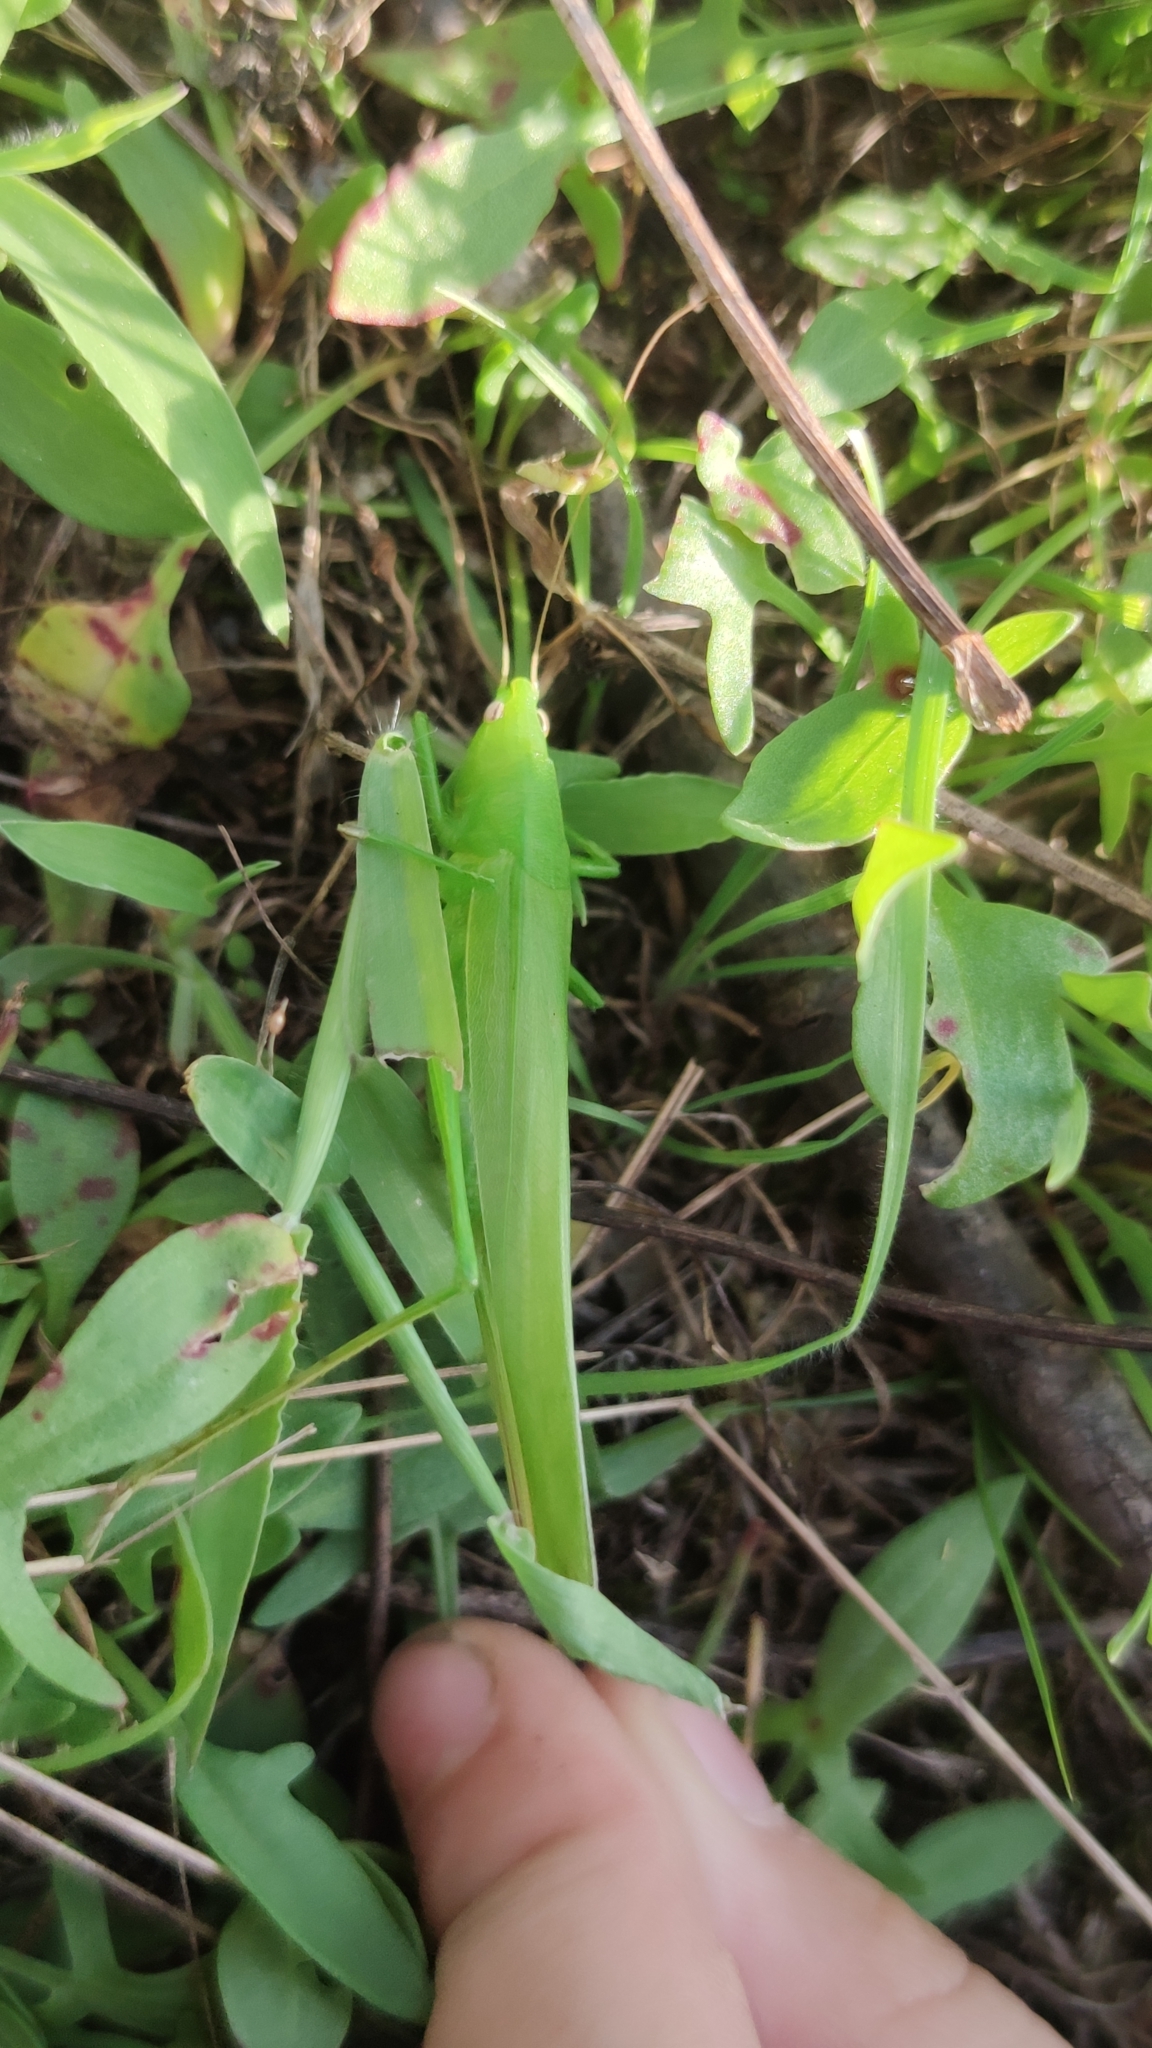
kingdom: Animalia
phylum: Arthropoda
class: Insecta
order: Orthoptera
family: Tettigoniidae
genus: Ruspolia
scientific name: Ruspolia nitidula
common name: Large conehead
